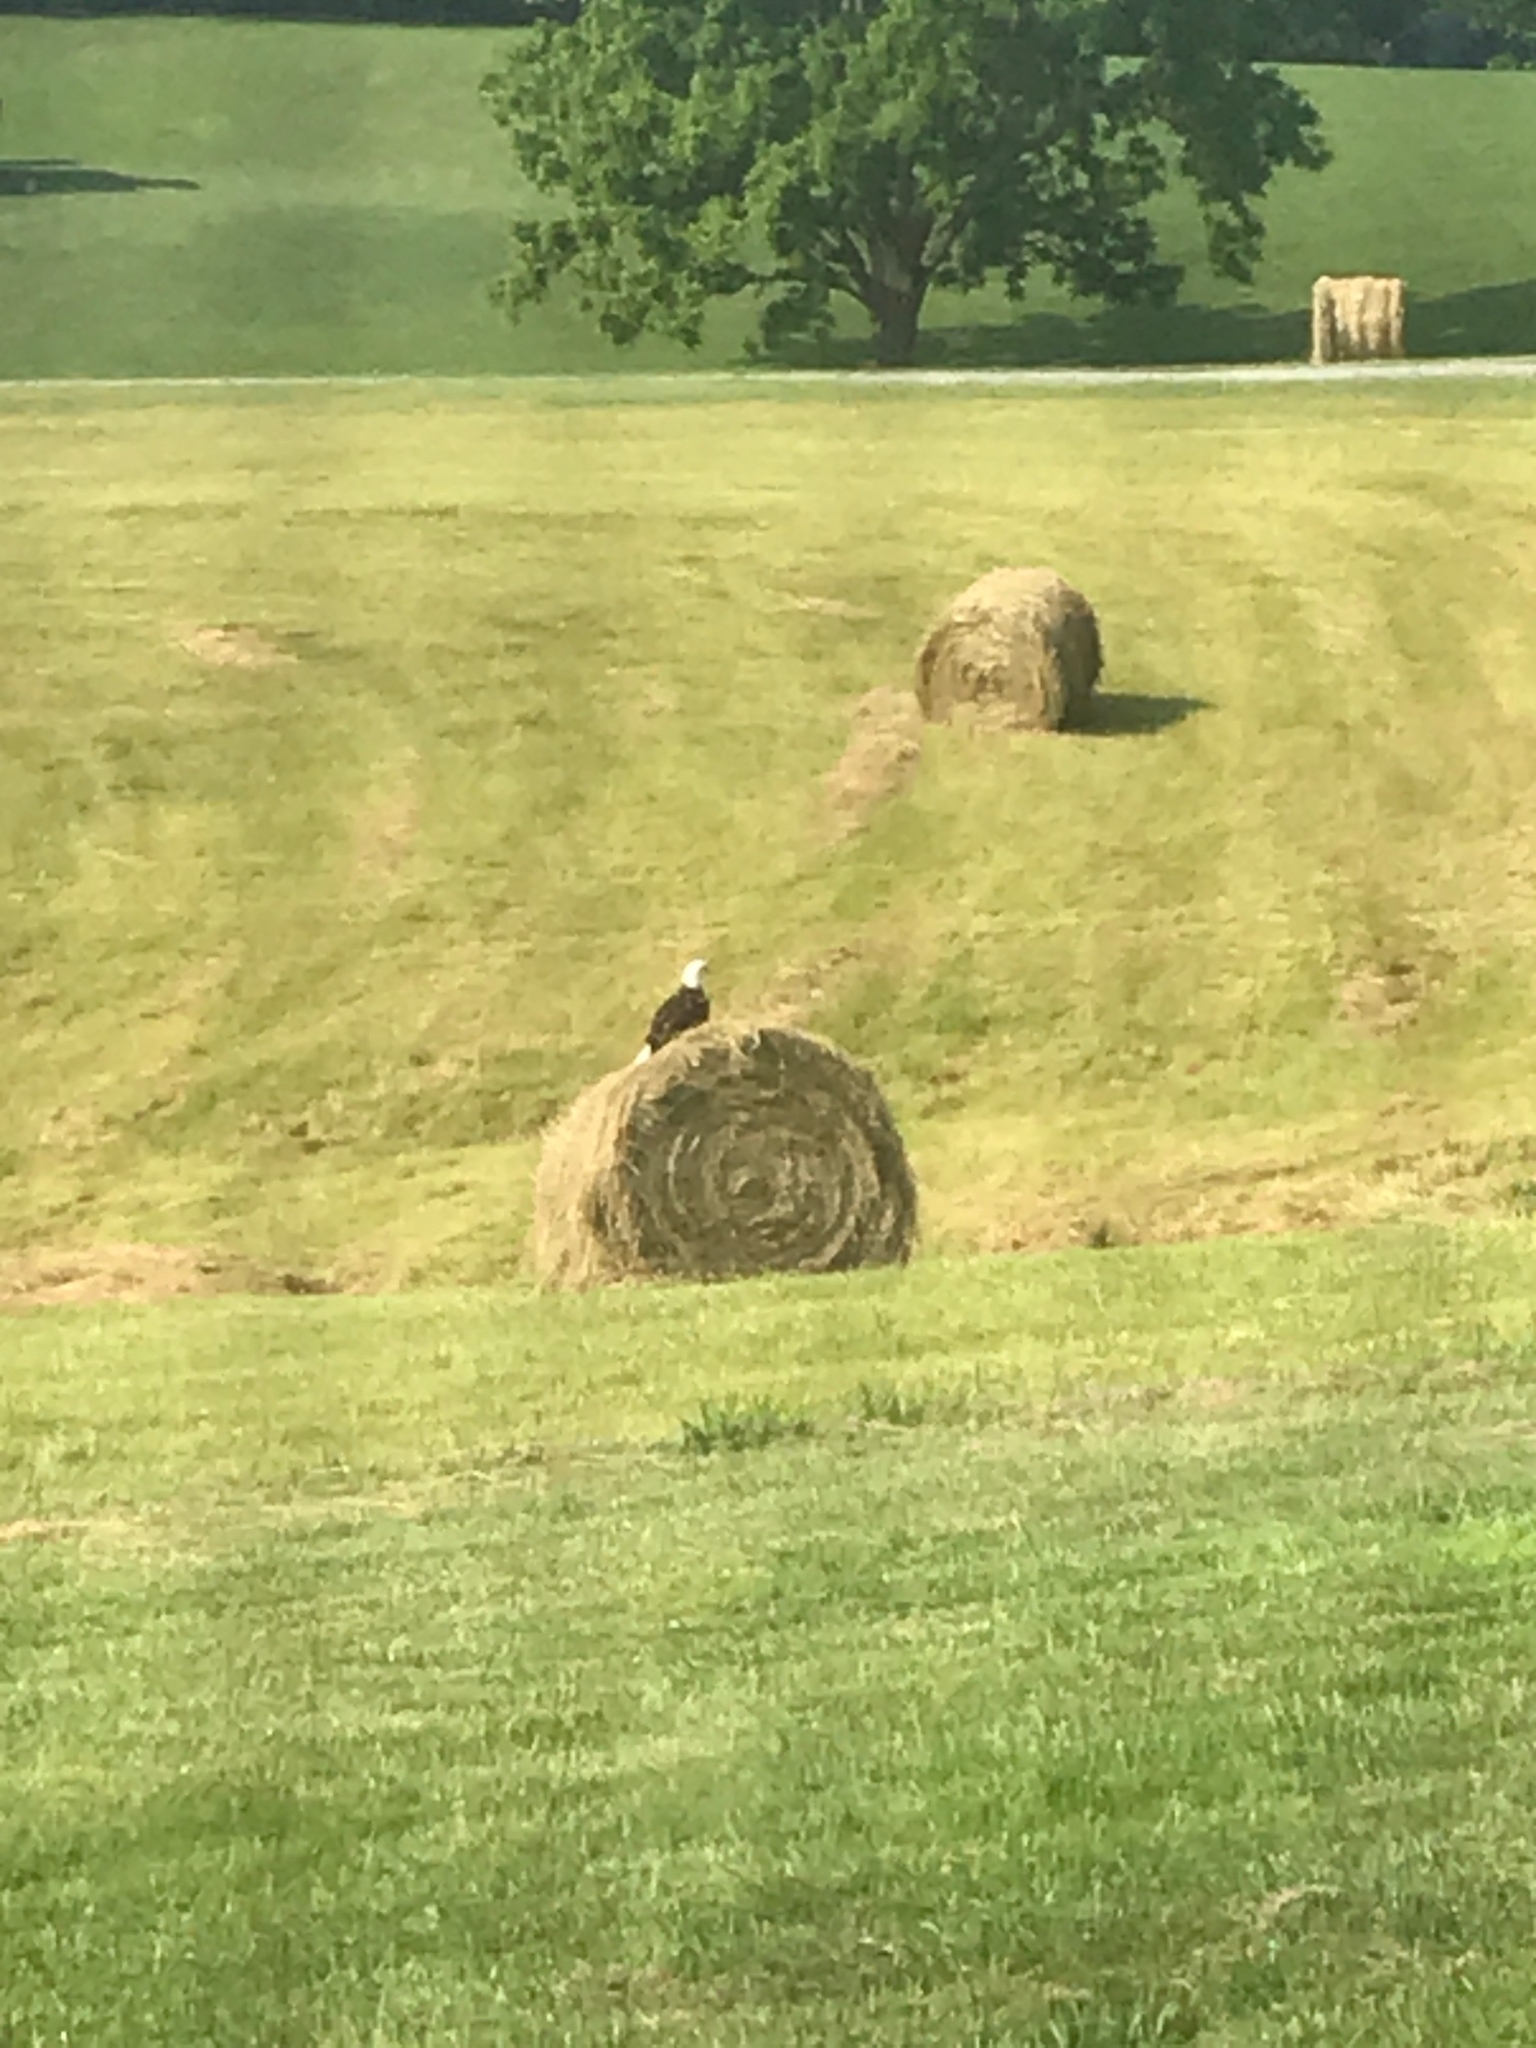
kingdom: Animalia
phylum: Chordata
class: Aves
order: Accipitriformes
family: Accipitridae
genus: Haliaeetus
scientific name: Haliaeetus leucocephalus
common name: Bald eagle
